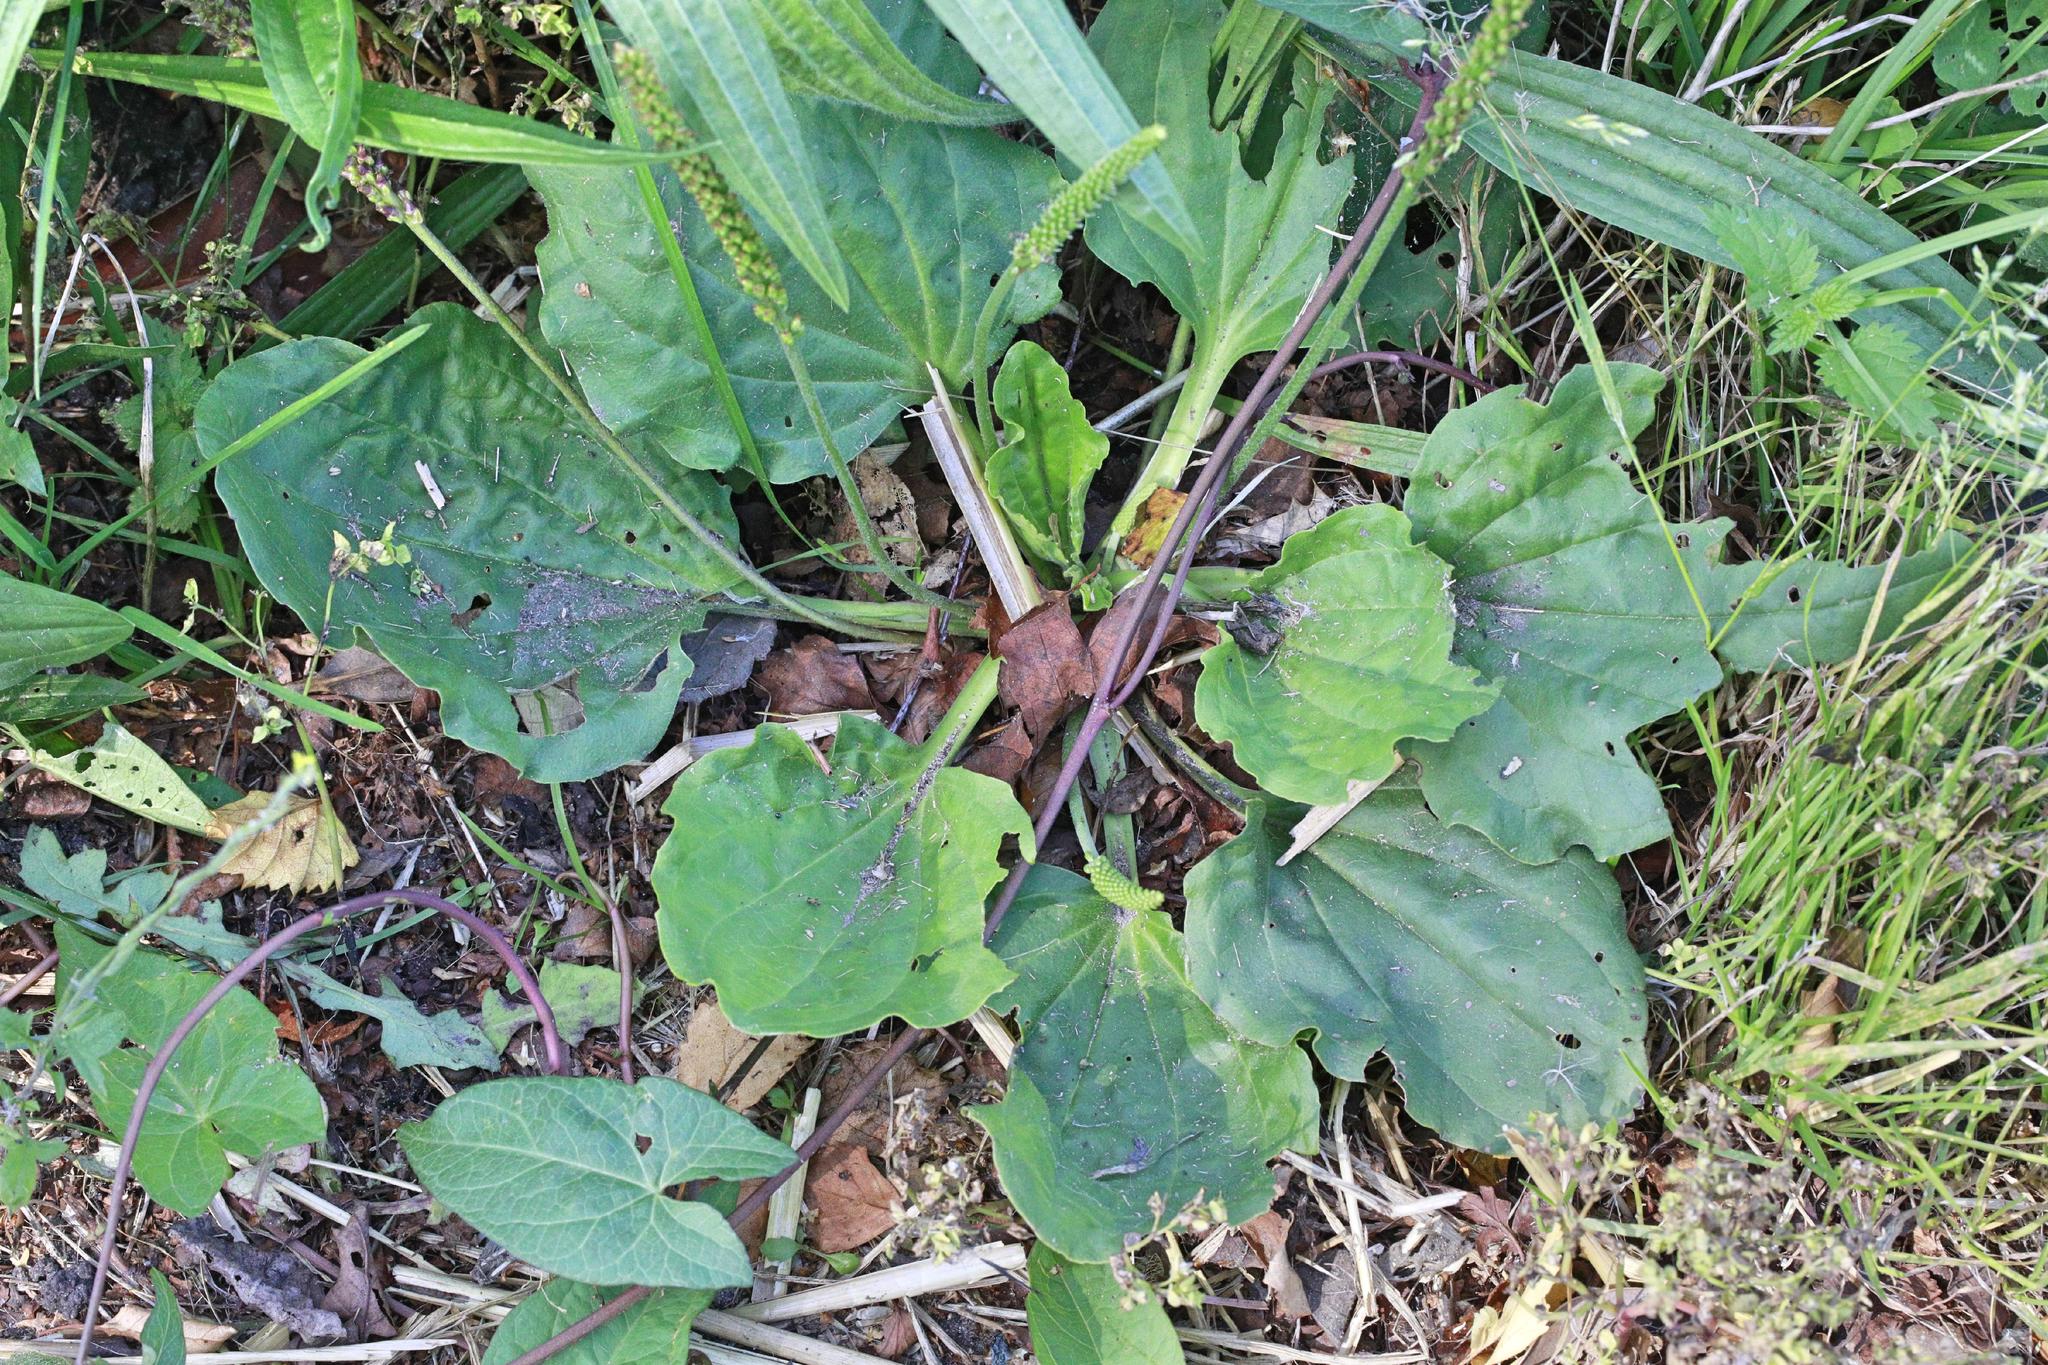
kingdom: Plantae
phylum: Tracheophyta
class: Magnoliopsida
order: Lamiales
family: Plantaginaceae
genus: Plantago
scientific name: Plantago major
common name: Common plantain
